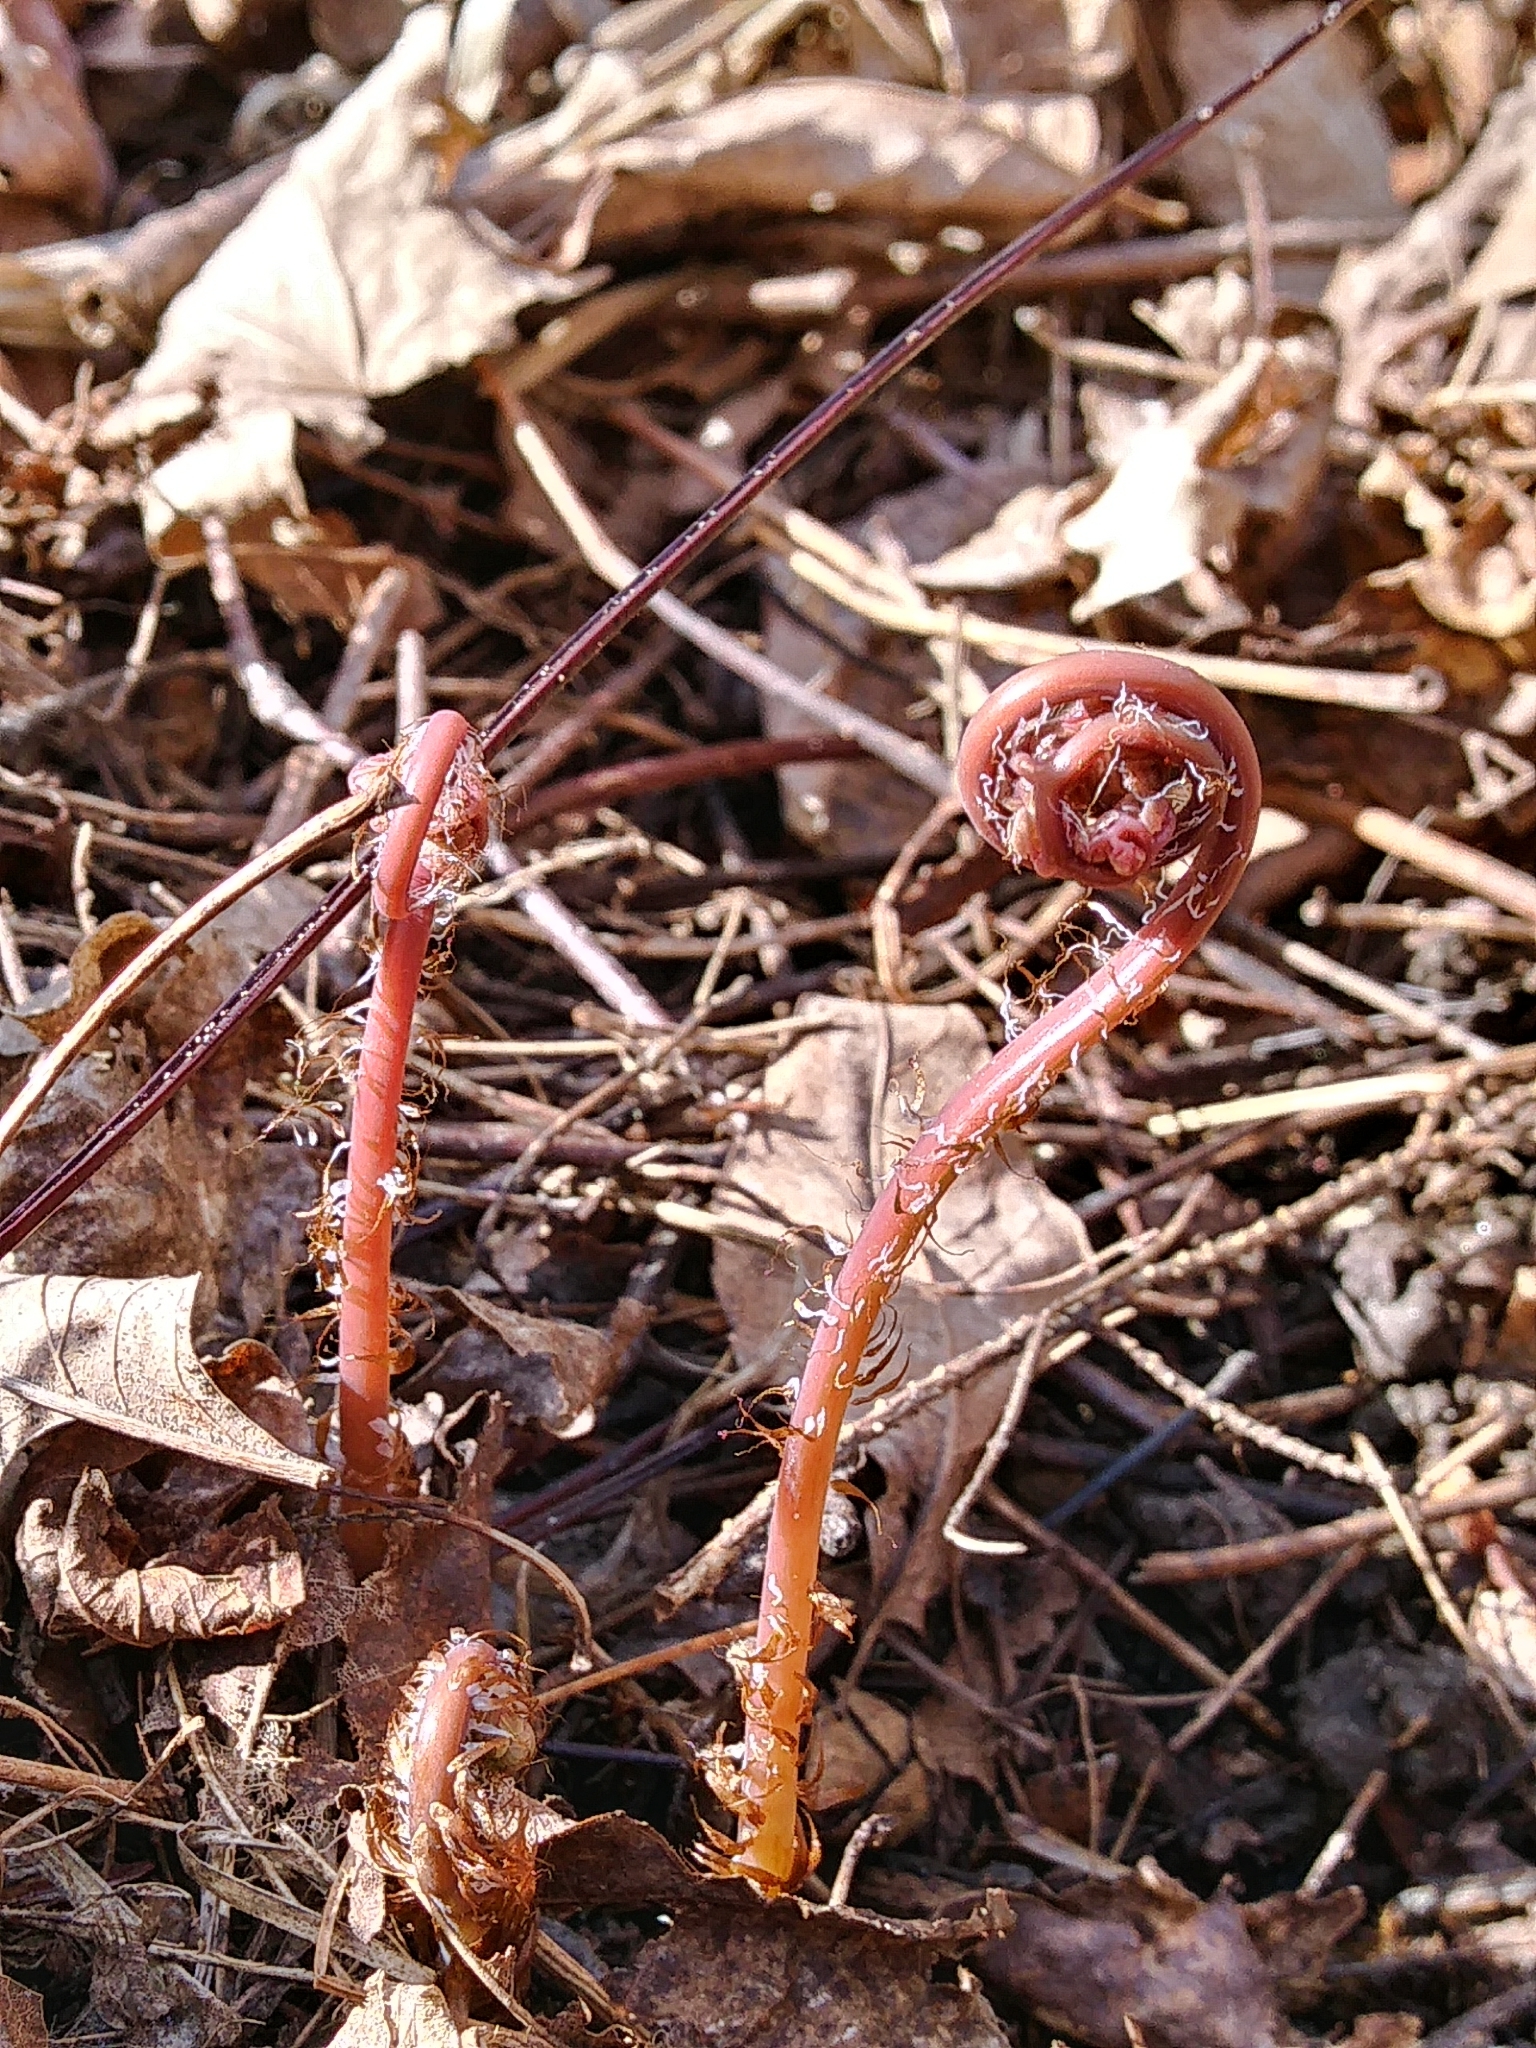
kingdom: Plantae
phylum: Tracheophyta
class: Polypodiopsida
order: Polypodiales
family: Pteridaceae
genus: Adiantum
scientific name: Adiantum pedatum
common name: Five-finger fern
